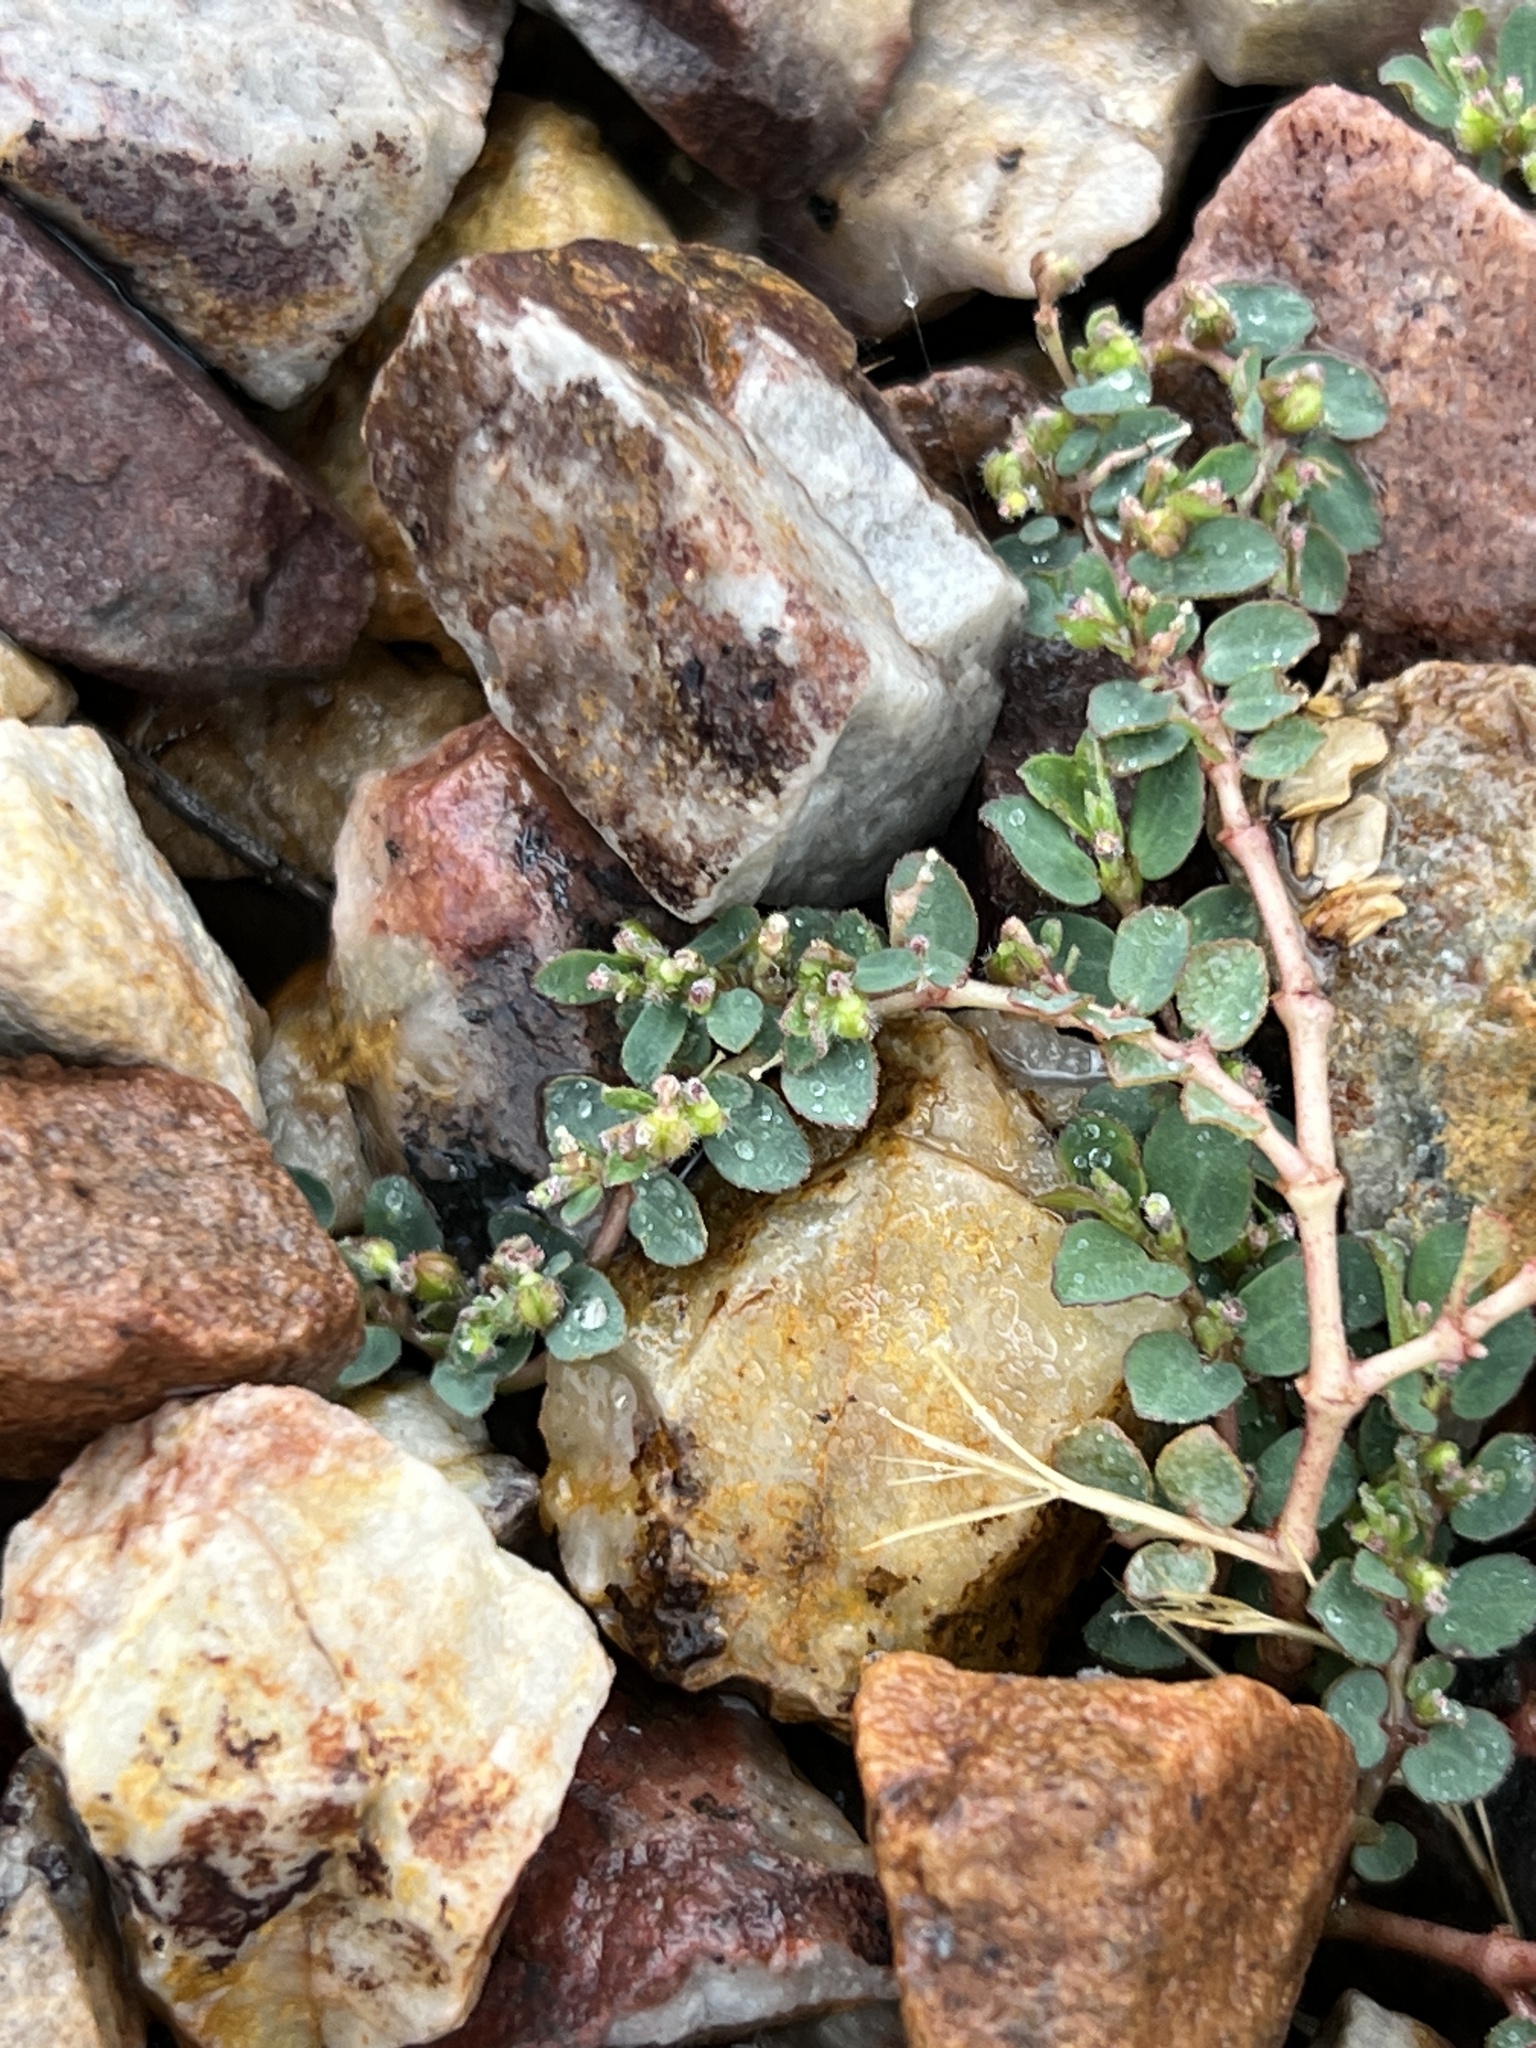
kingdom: Plantae
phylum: Tracheophyta
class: Magnoliopsida
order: Malpighiales
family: Euphorbiaceae
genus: Euphorbia
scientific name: Euphorbia prostrata
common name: Prostrate sandmat
